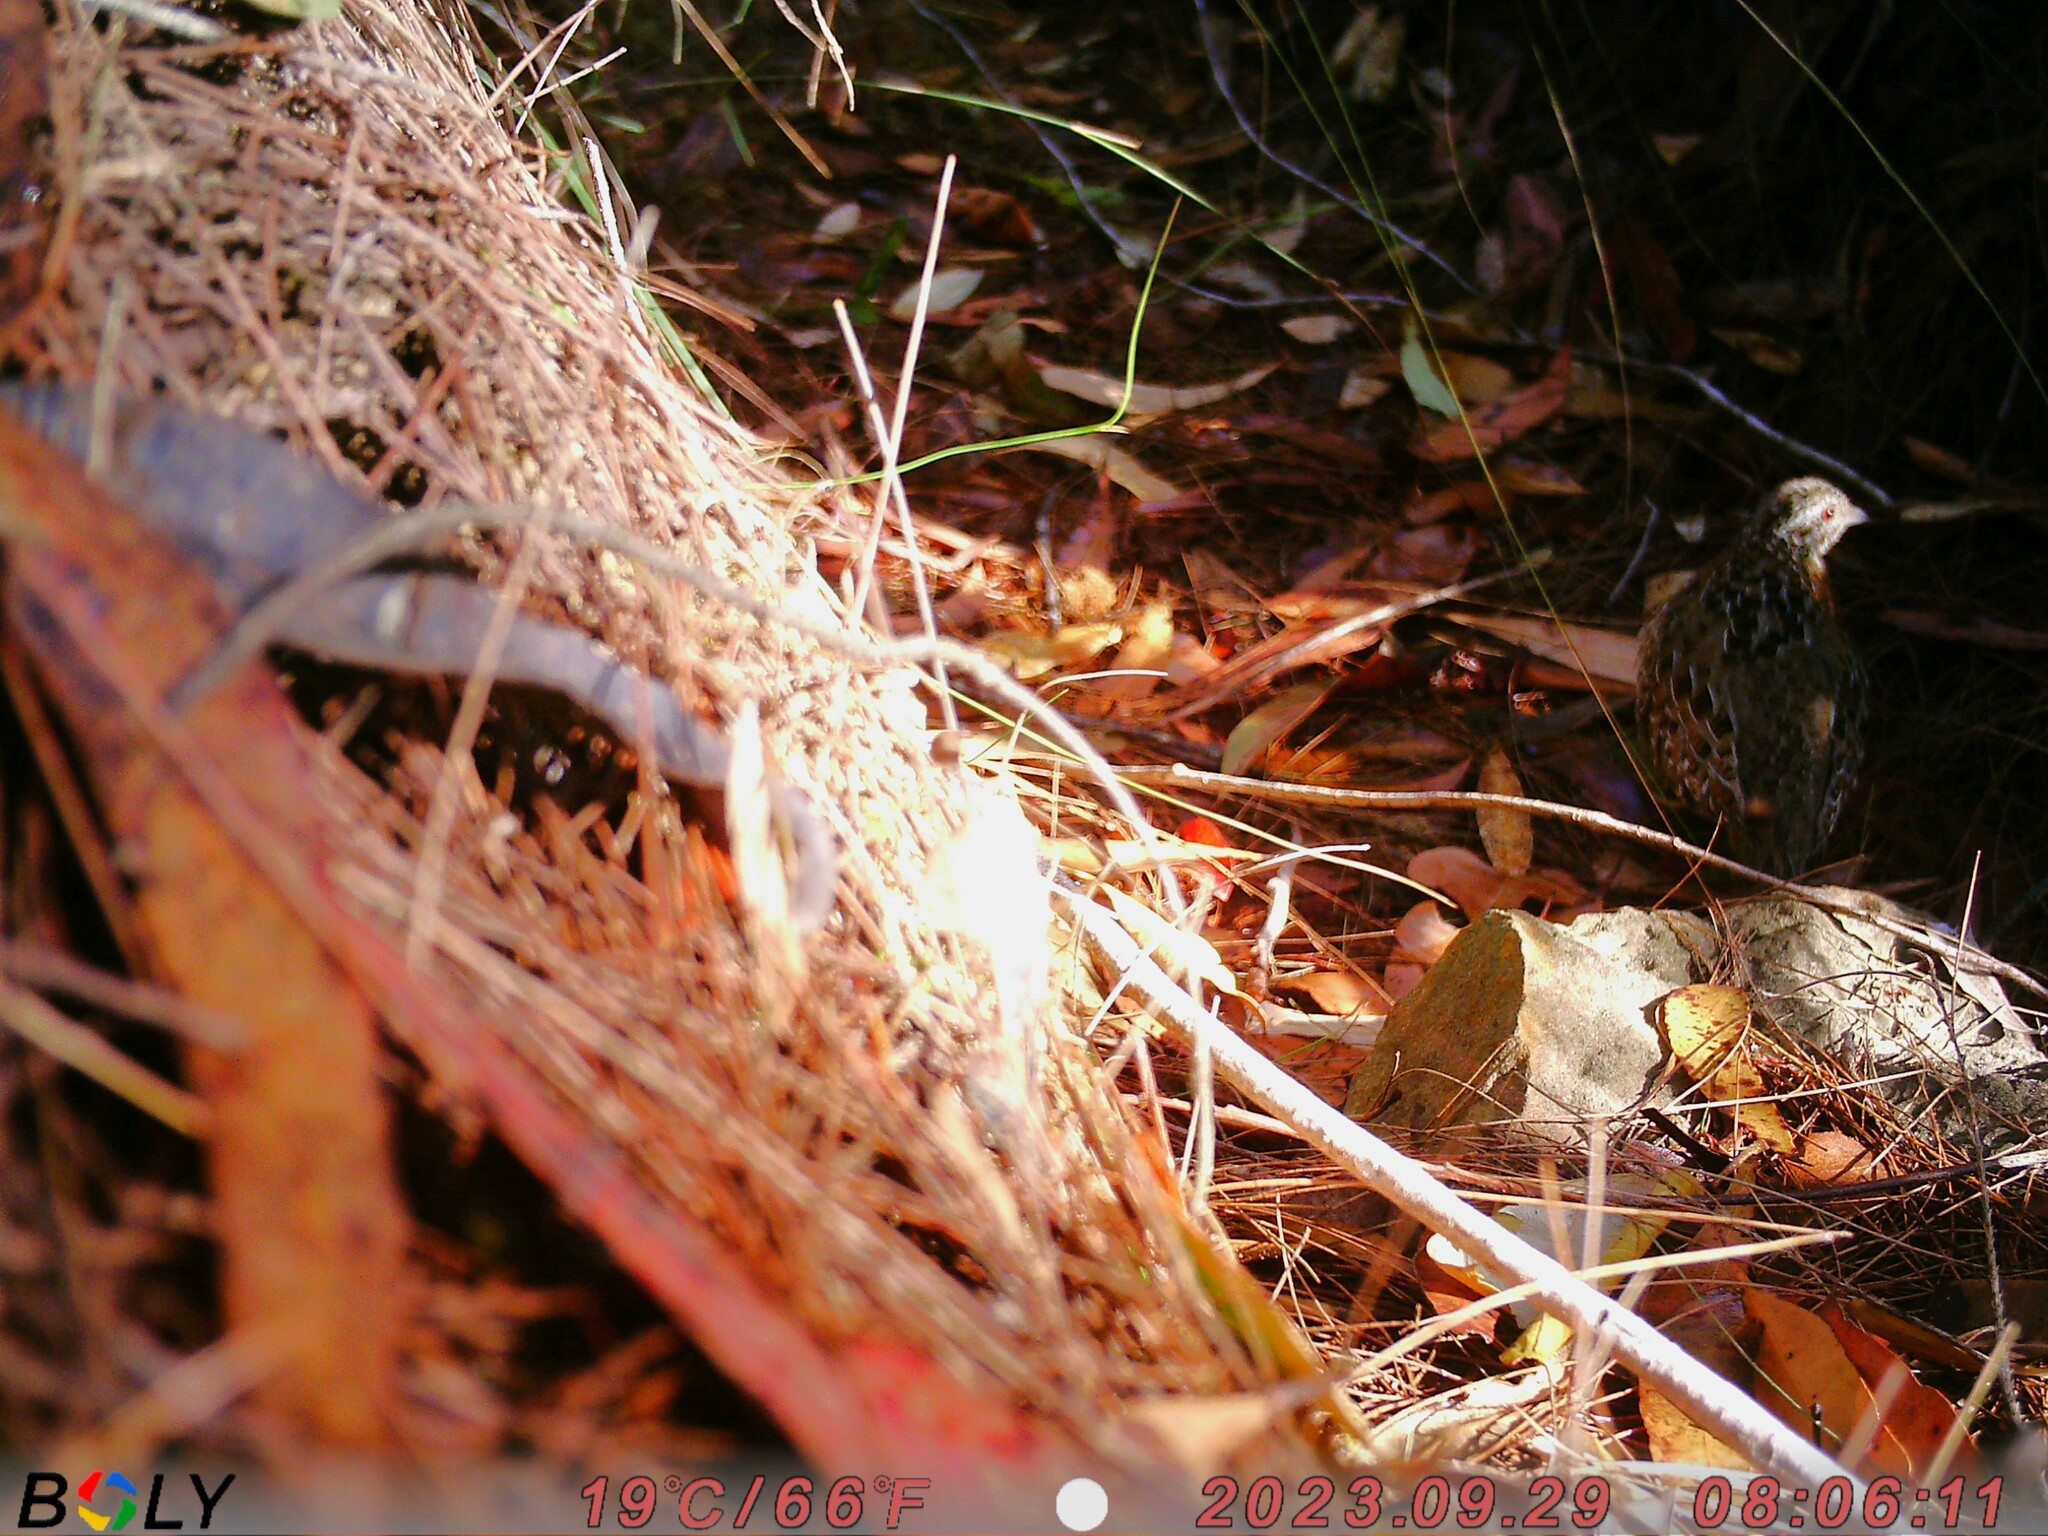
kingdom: Animalia
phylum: Chordata
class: Aves
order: Charadriiformes
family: Turnicidae
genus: Turnix
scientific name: Turnix varius
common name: Painted buttonquail
